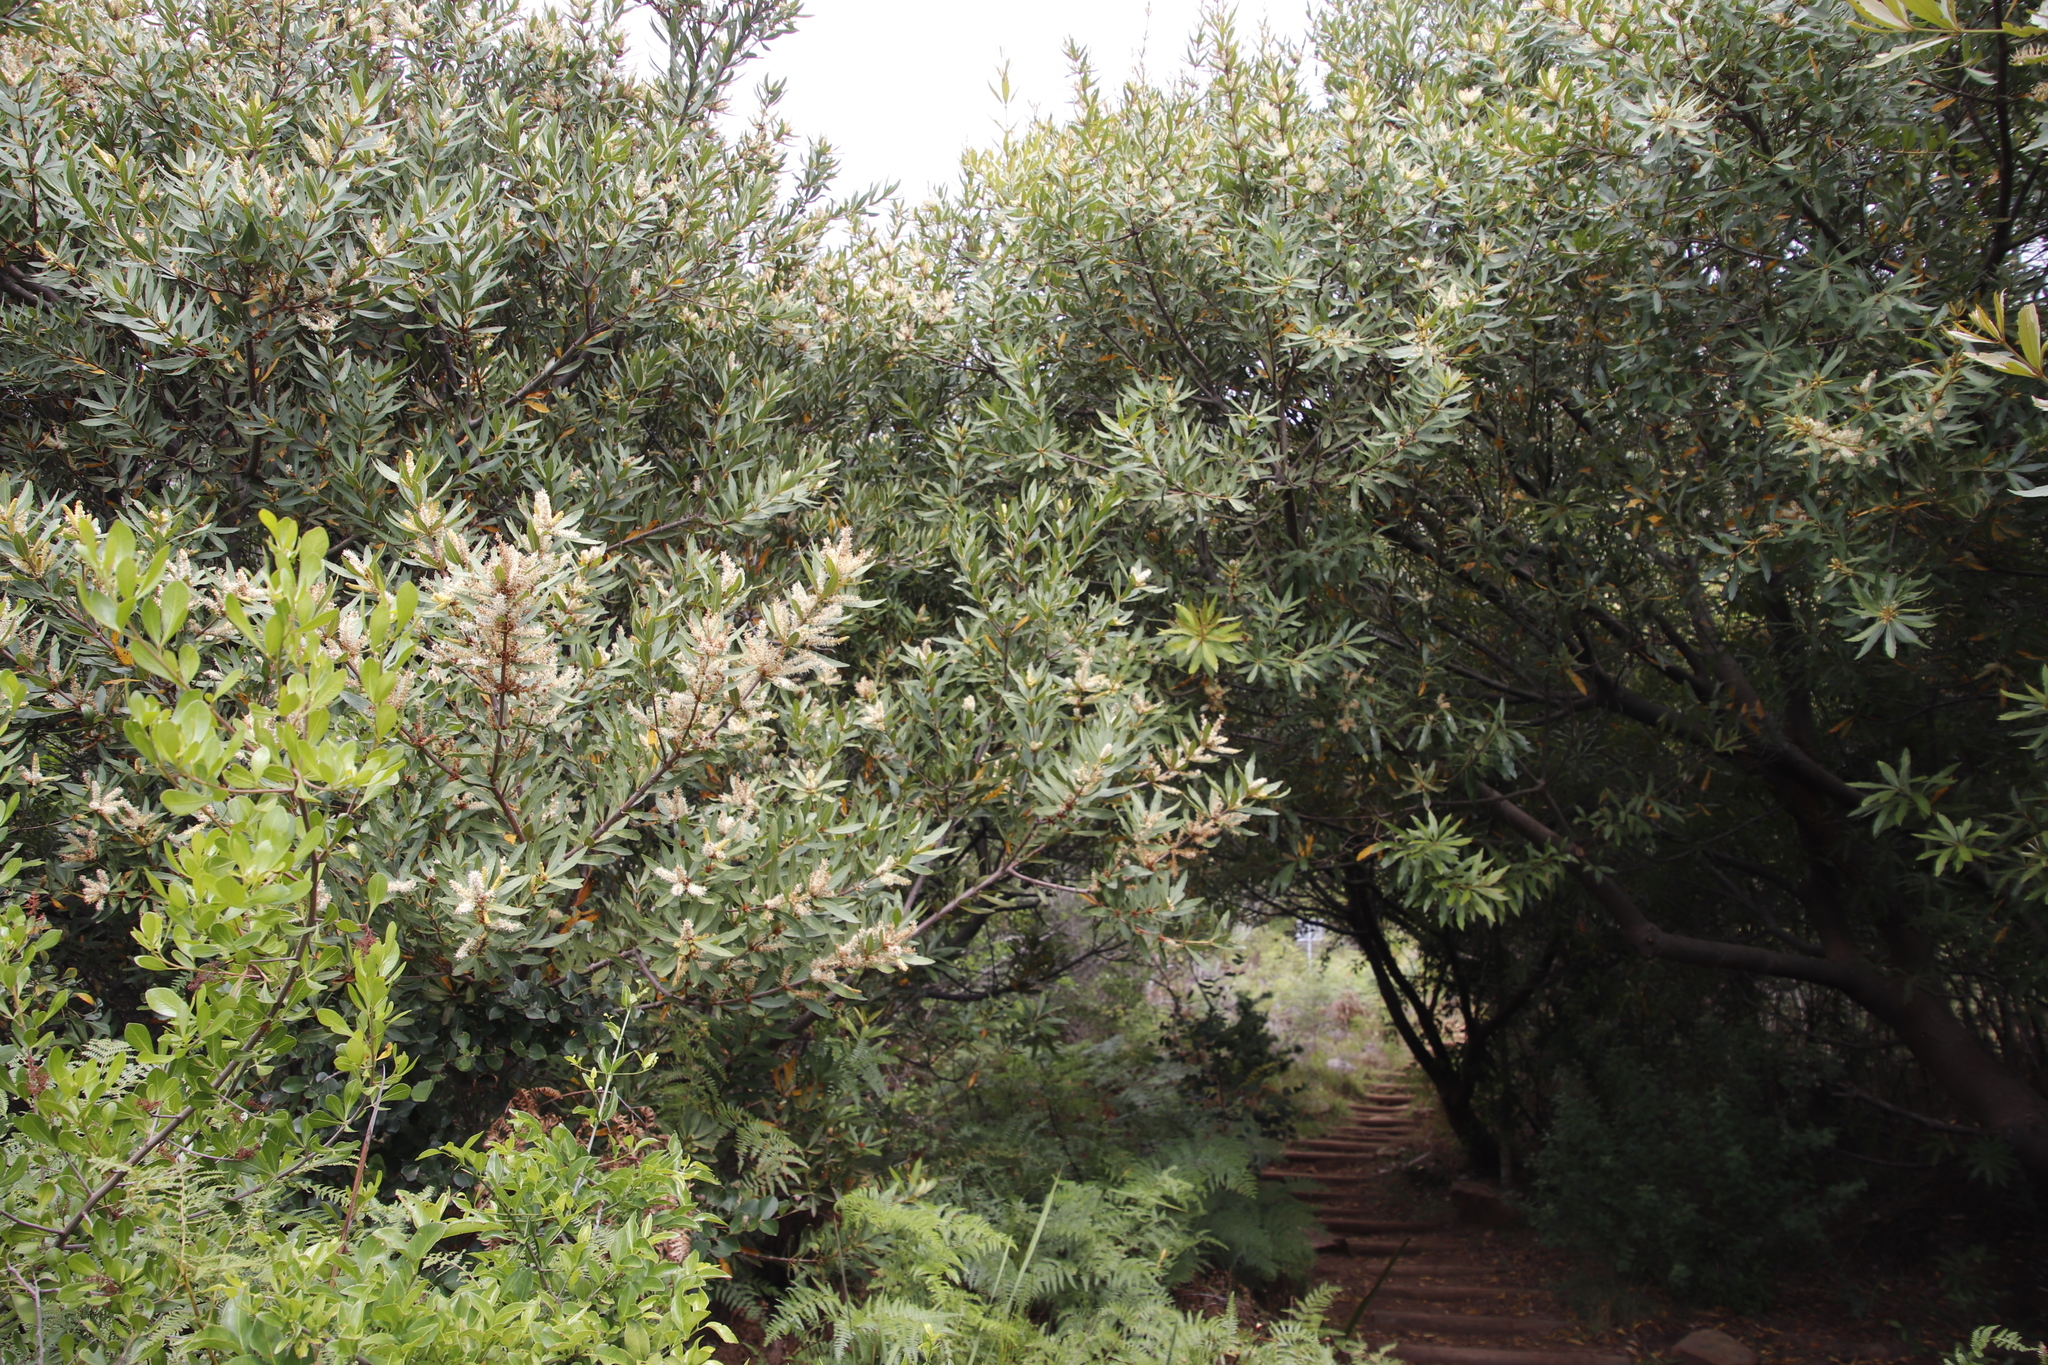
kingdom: Plantae
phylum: Tracheophyta
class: Magnoliopsida
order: Proteales
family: Proteaceae
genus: Brabejum
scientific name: Brabejum stellatifolium
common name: Wild almond
